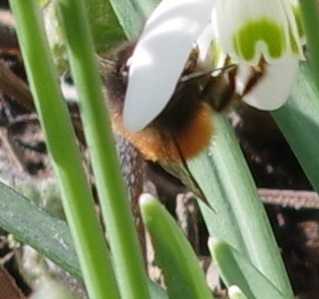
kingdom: Animalia
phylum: Arthropoda
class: Insecta
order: Hymenoptera
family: Megachilidae
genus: Osmia
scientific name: Osmia cornuta
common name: Mason bee
